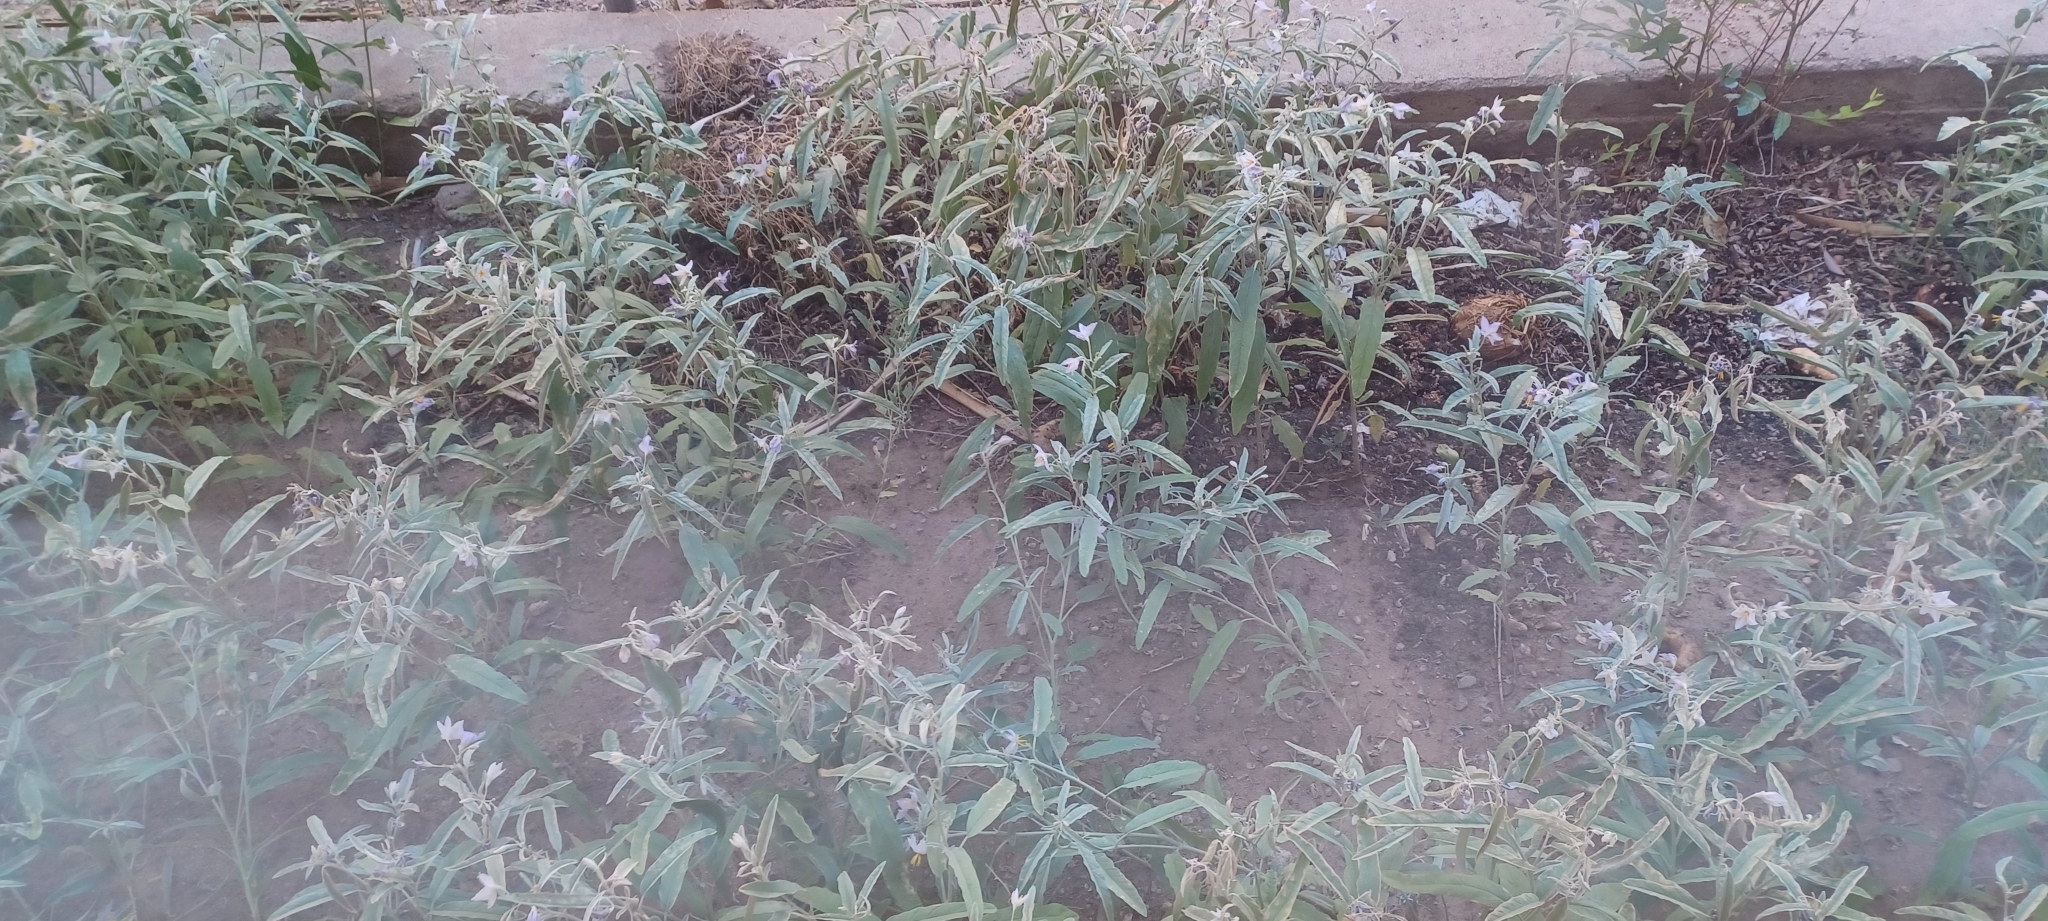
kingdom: Plantae
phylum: Tracheophyta
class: Magnoliopsida
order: Solanales
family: Solanaceae
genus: Solanum
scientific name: Solanum elaeagnifolium
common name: Silverleaf nightshade
